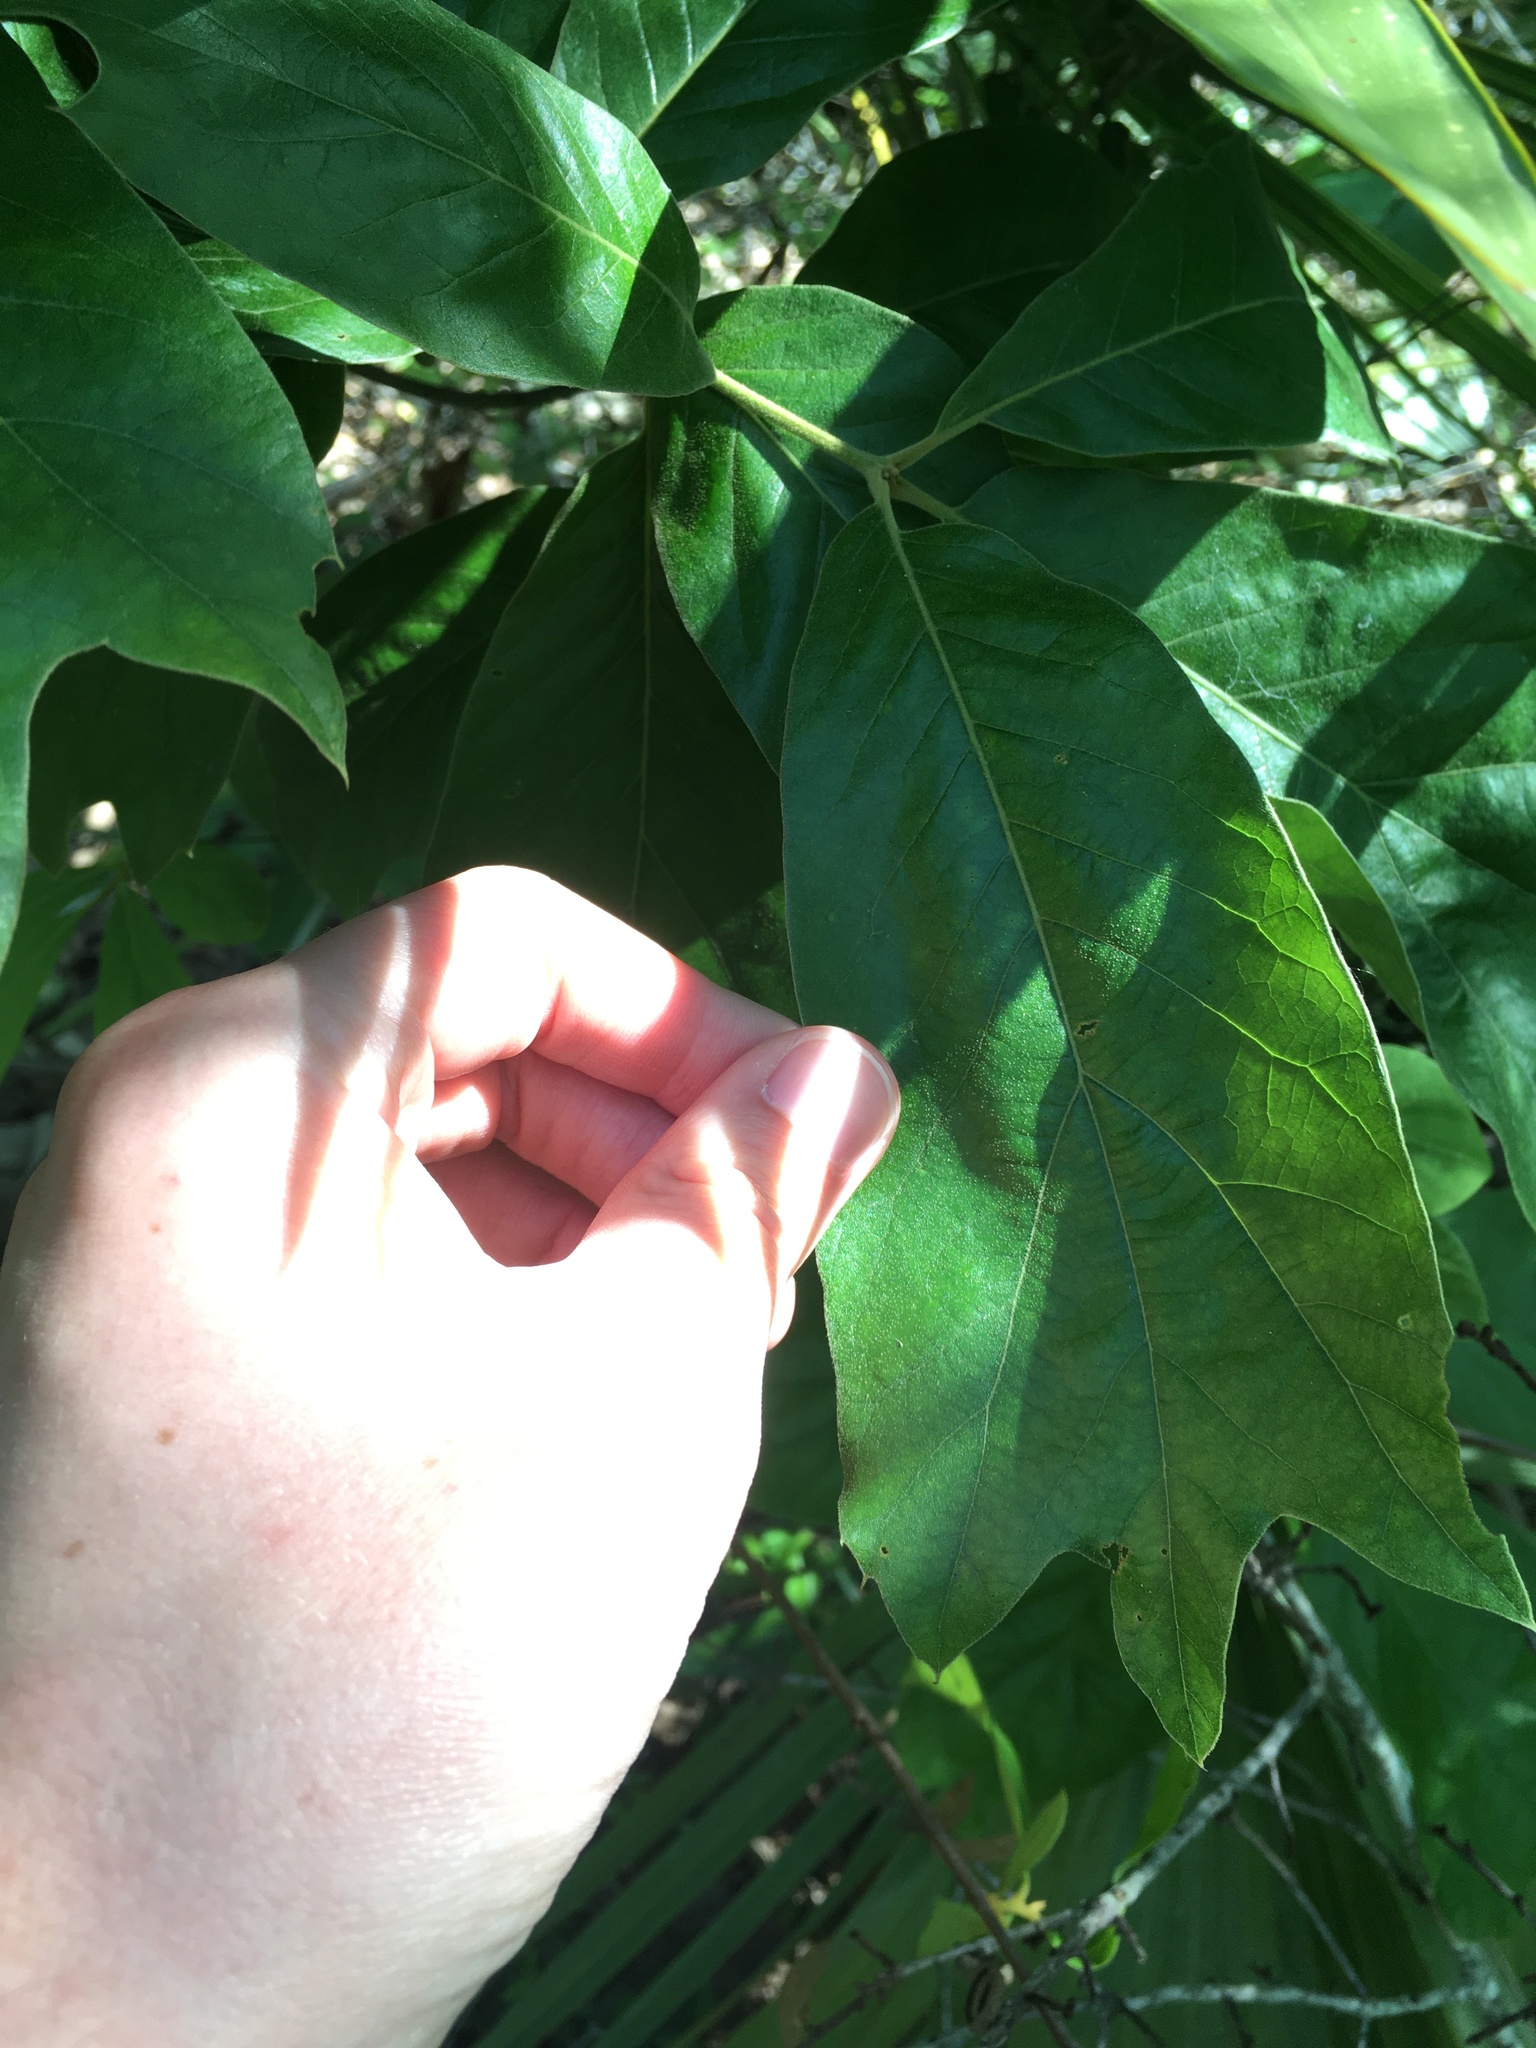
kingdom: Plantae
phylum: Tracheophyta
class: Magnoliopsida
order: Fagales
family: Fagaceae
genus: Quercus
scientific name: Quercus falcata
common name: Southern red oak
